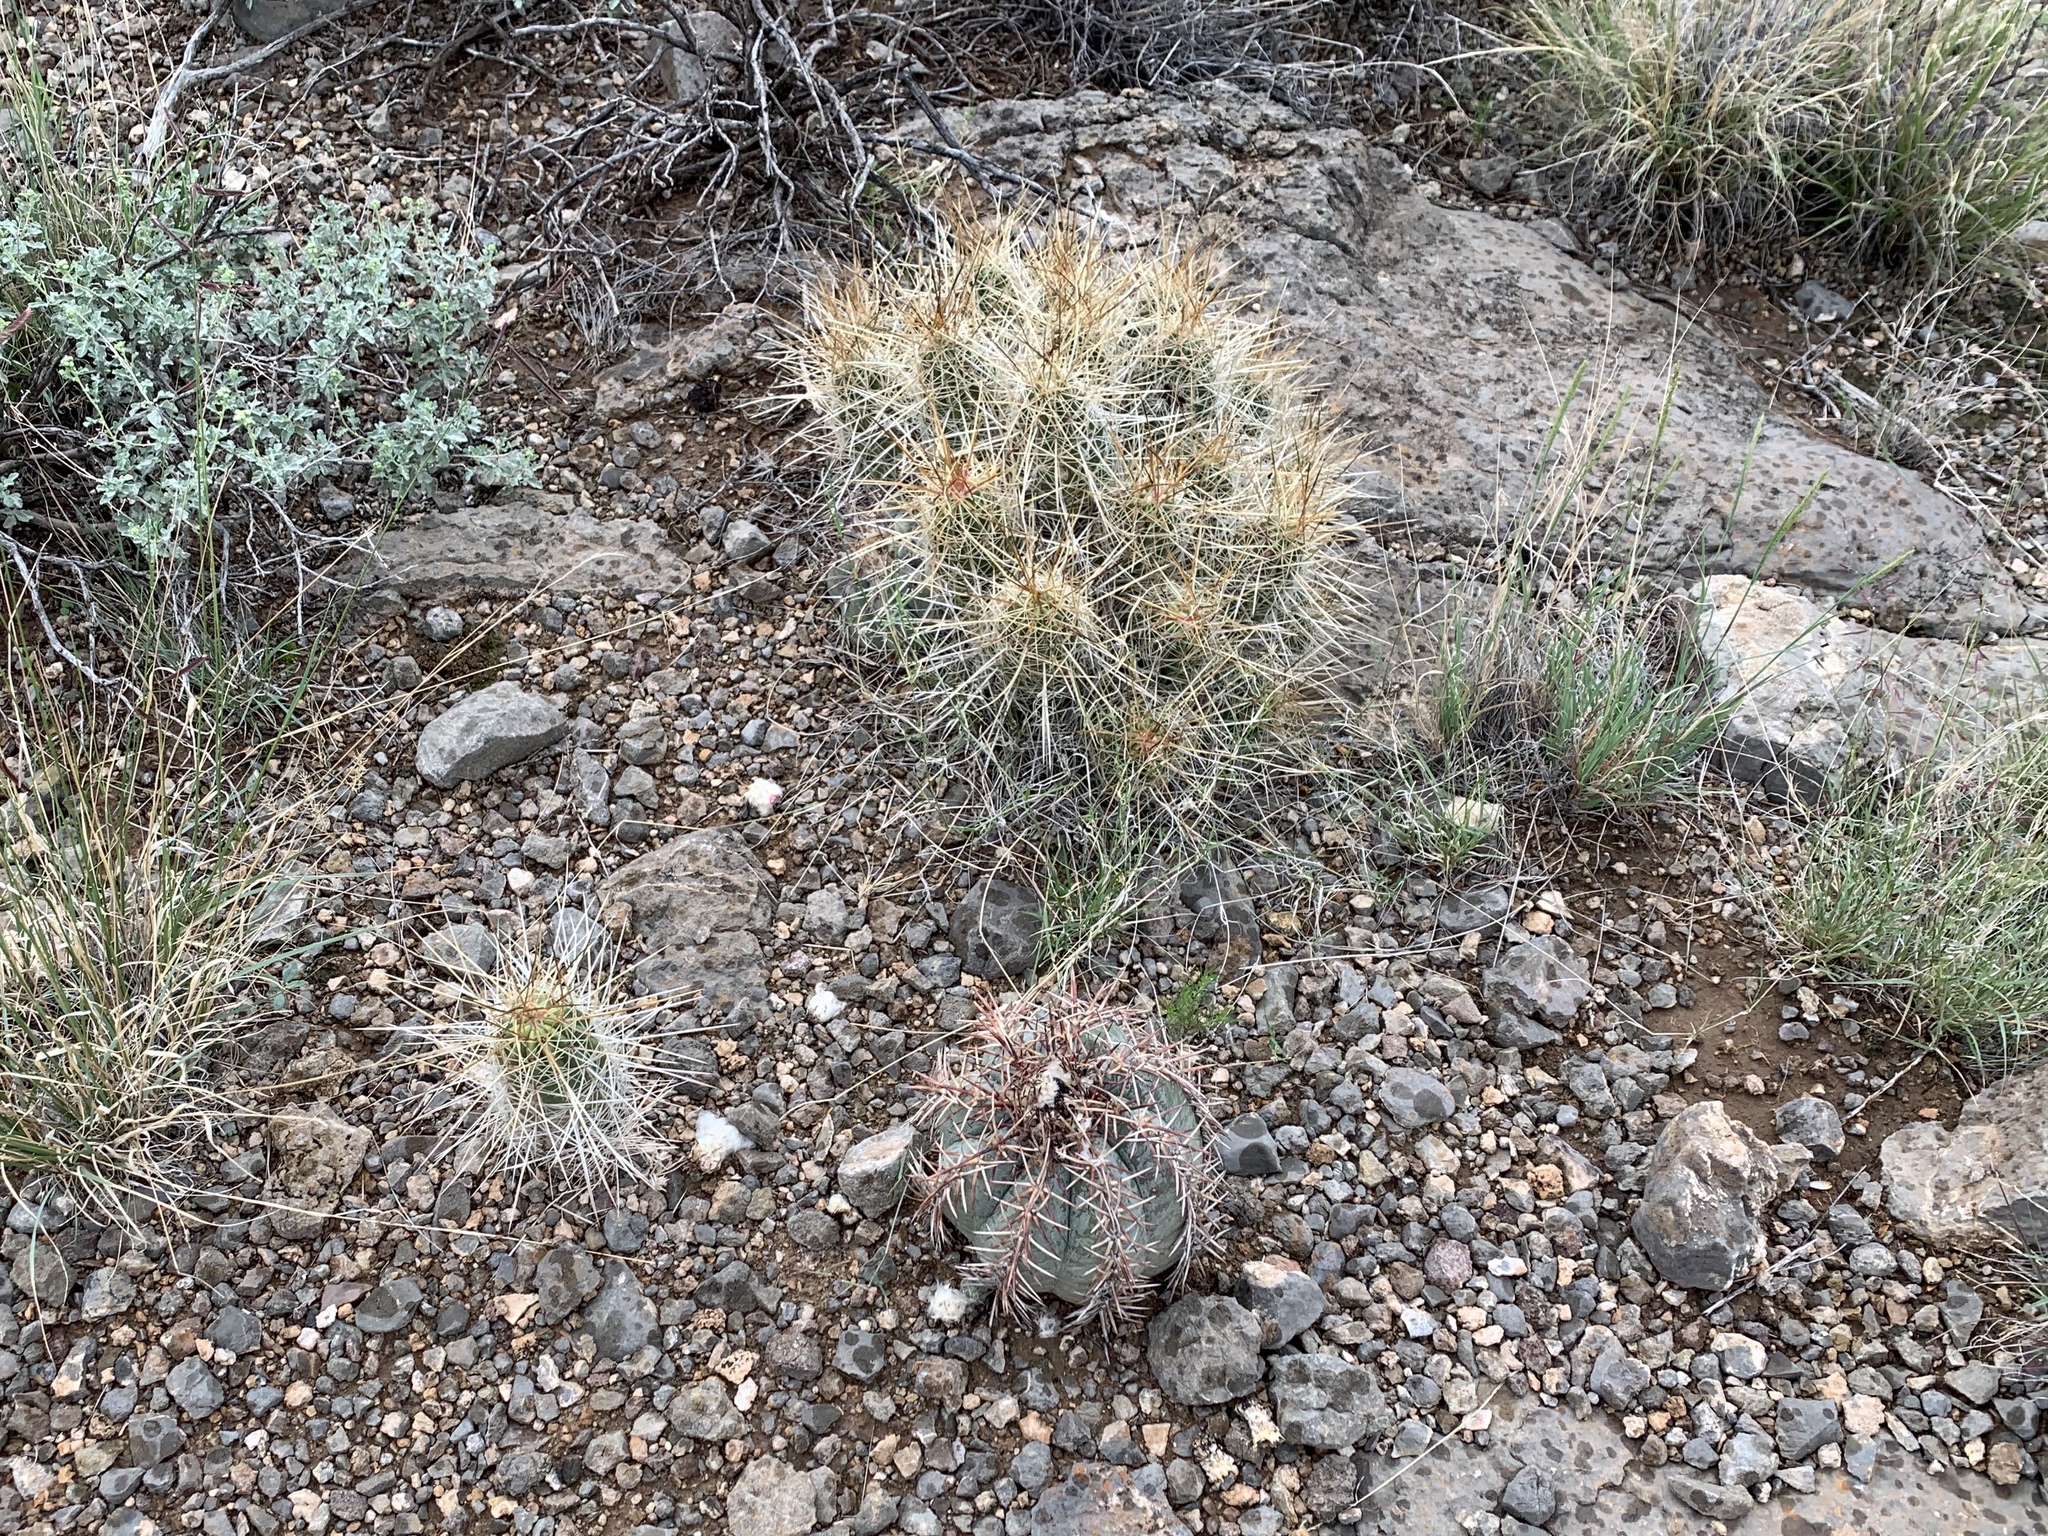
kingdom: Plantae
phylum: Tracheophyta
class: Magnoliopsida
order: Caryophyllales
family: Cactaceae
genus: Echinocactus
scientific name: Echinocactus horizonthalonius
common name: Devilshead
